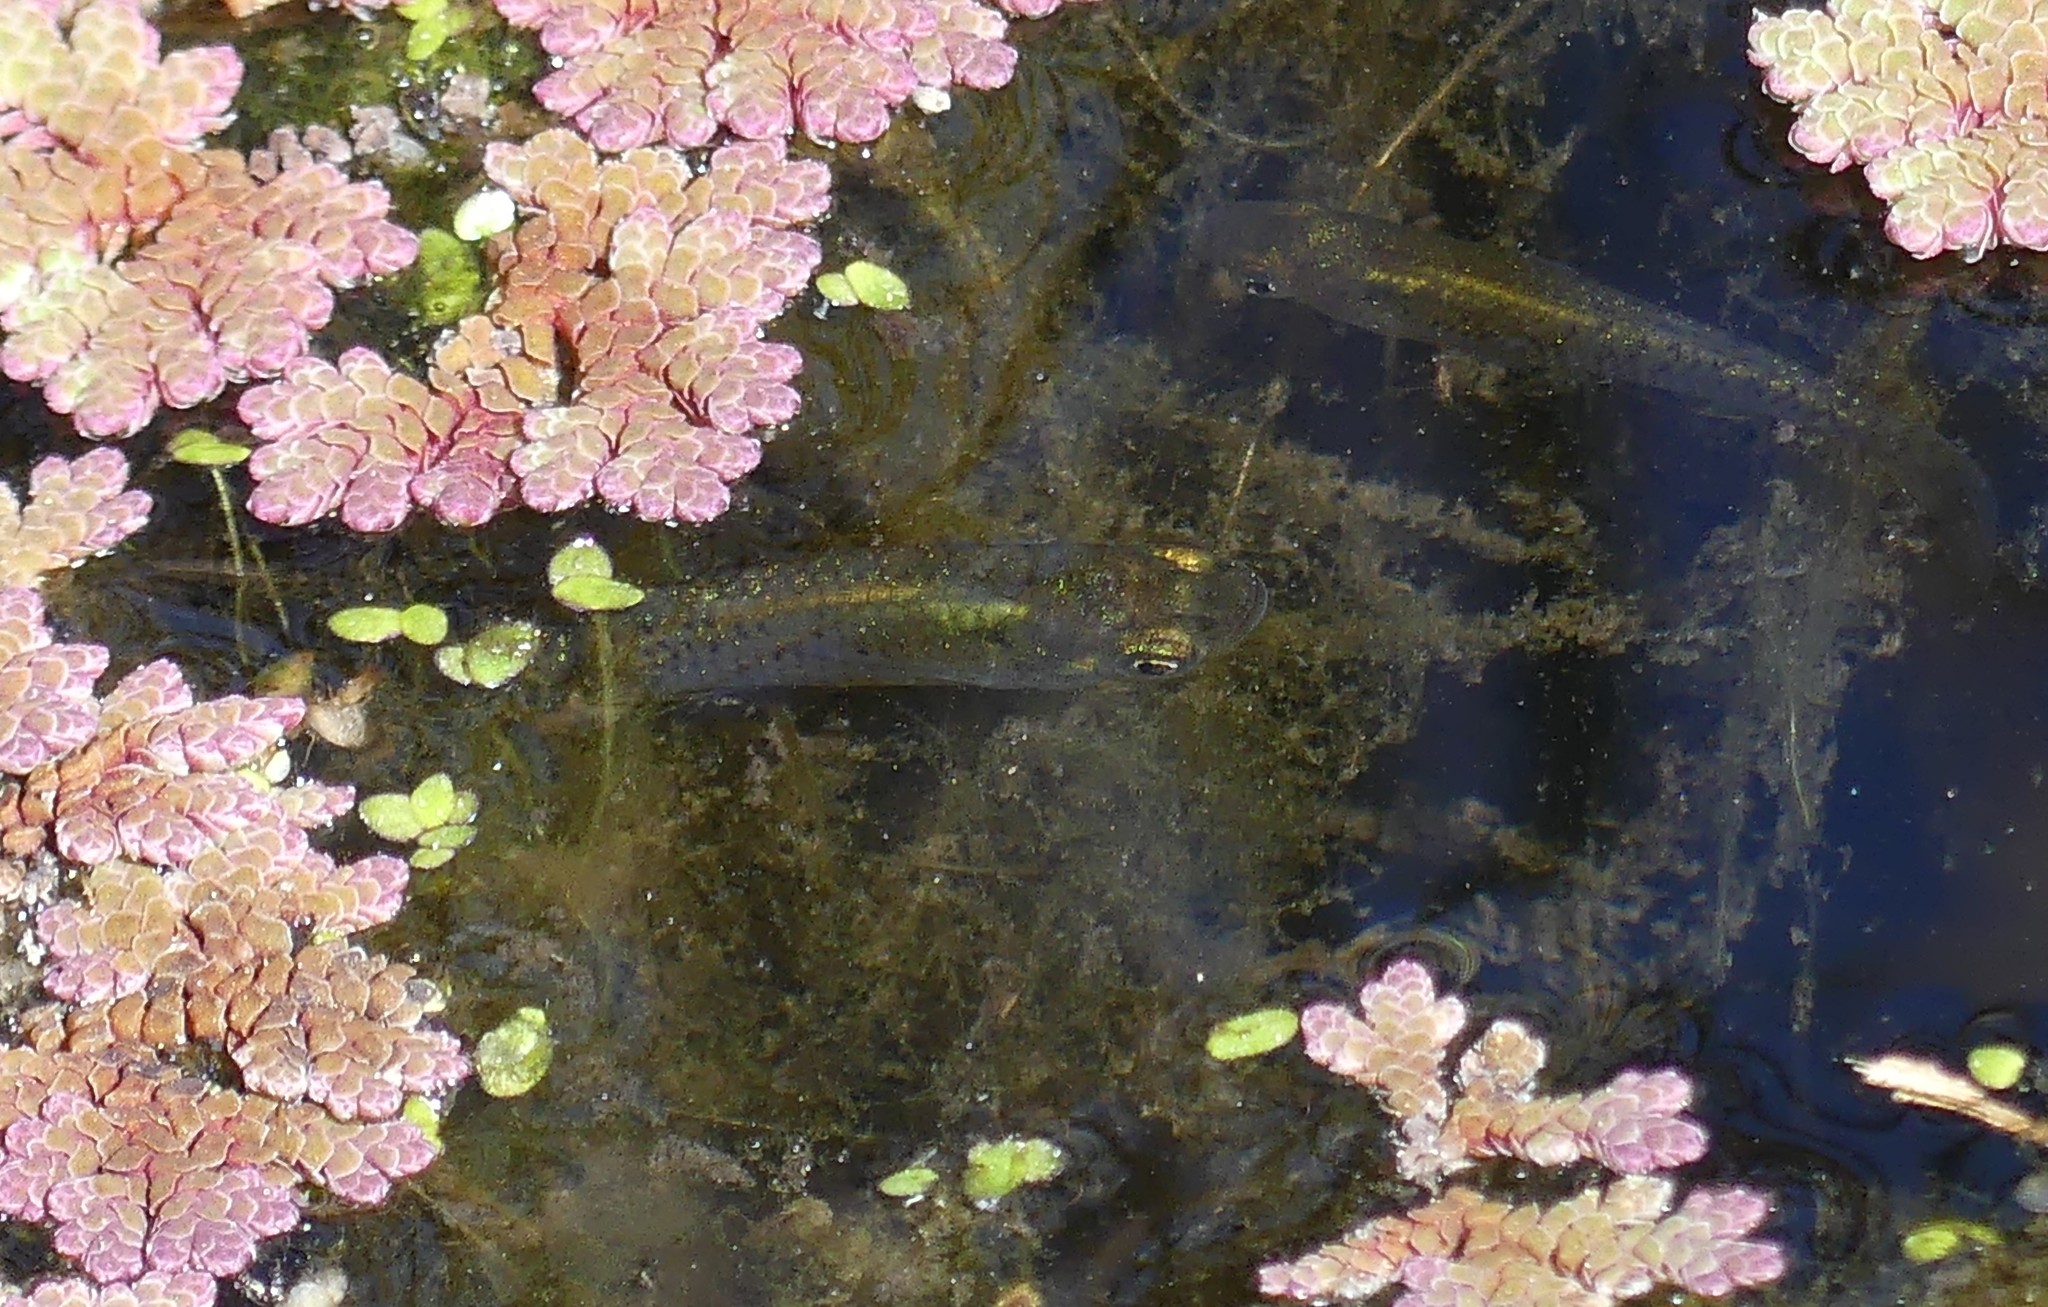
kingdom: Animalia
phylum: Chordata
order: Cyprinodontiformes
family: Poeciliidae
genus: Gambusia
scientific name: Gambusia holbrooki
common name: Eastern mosquitofish
